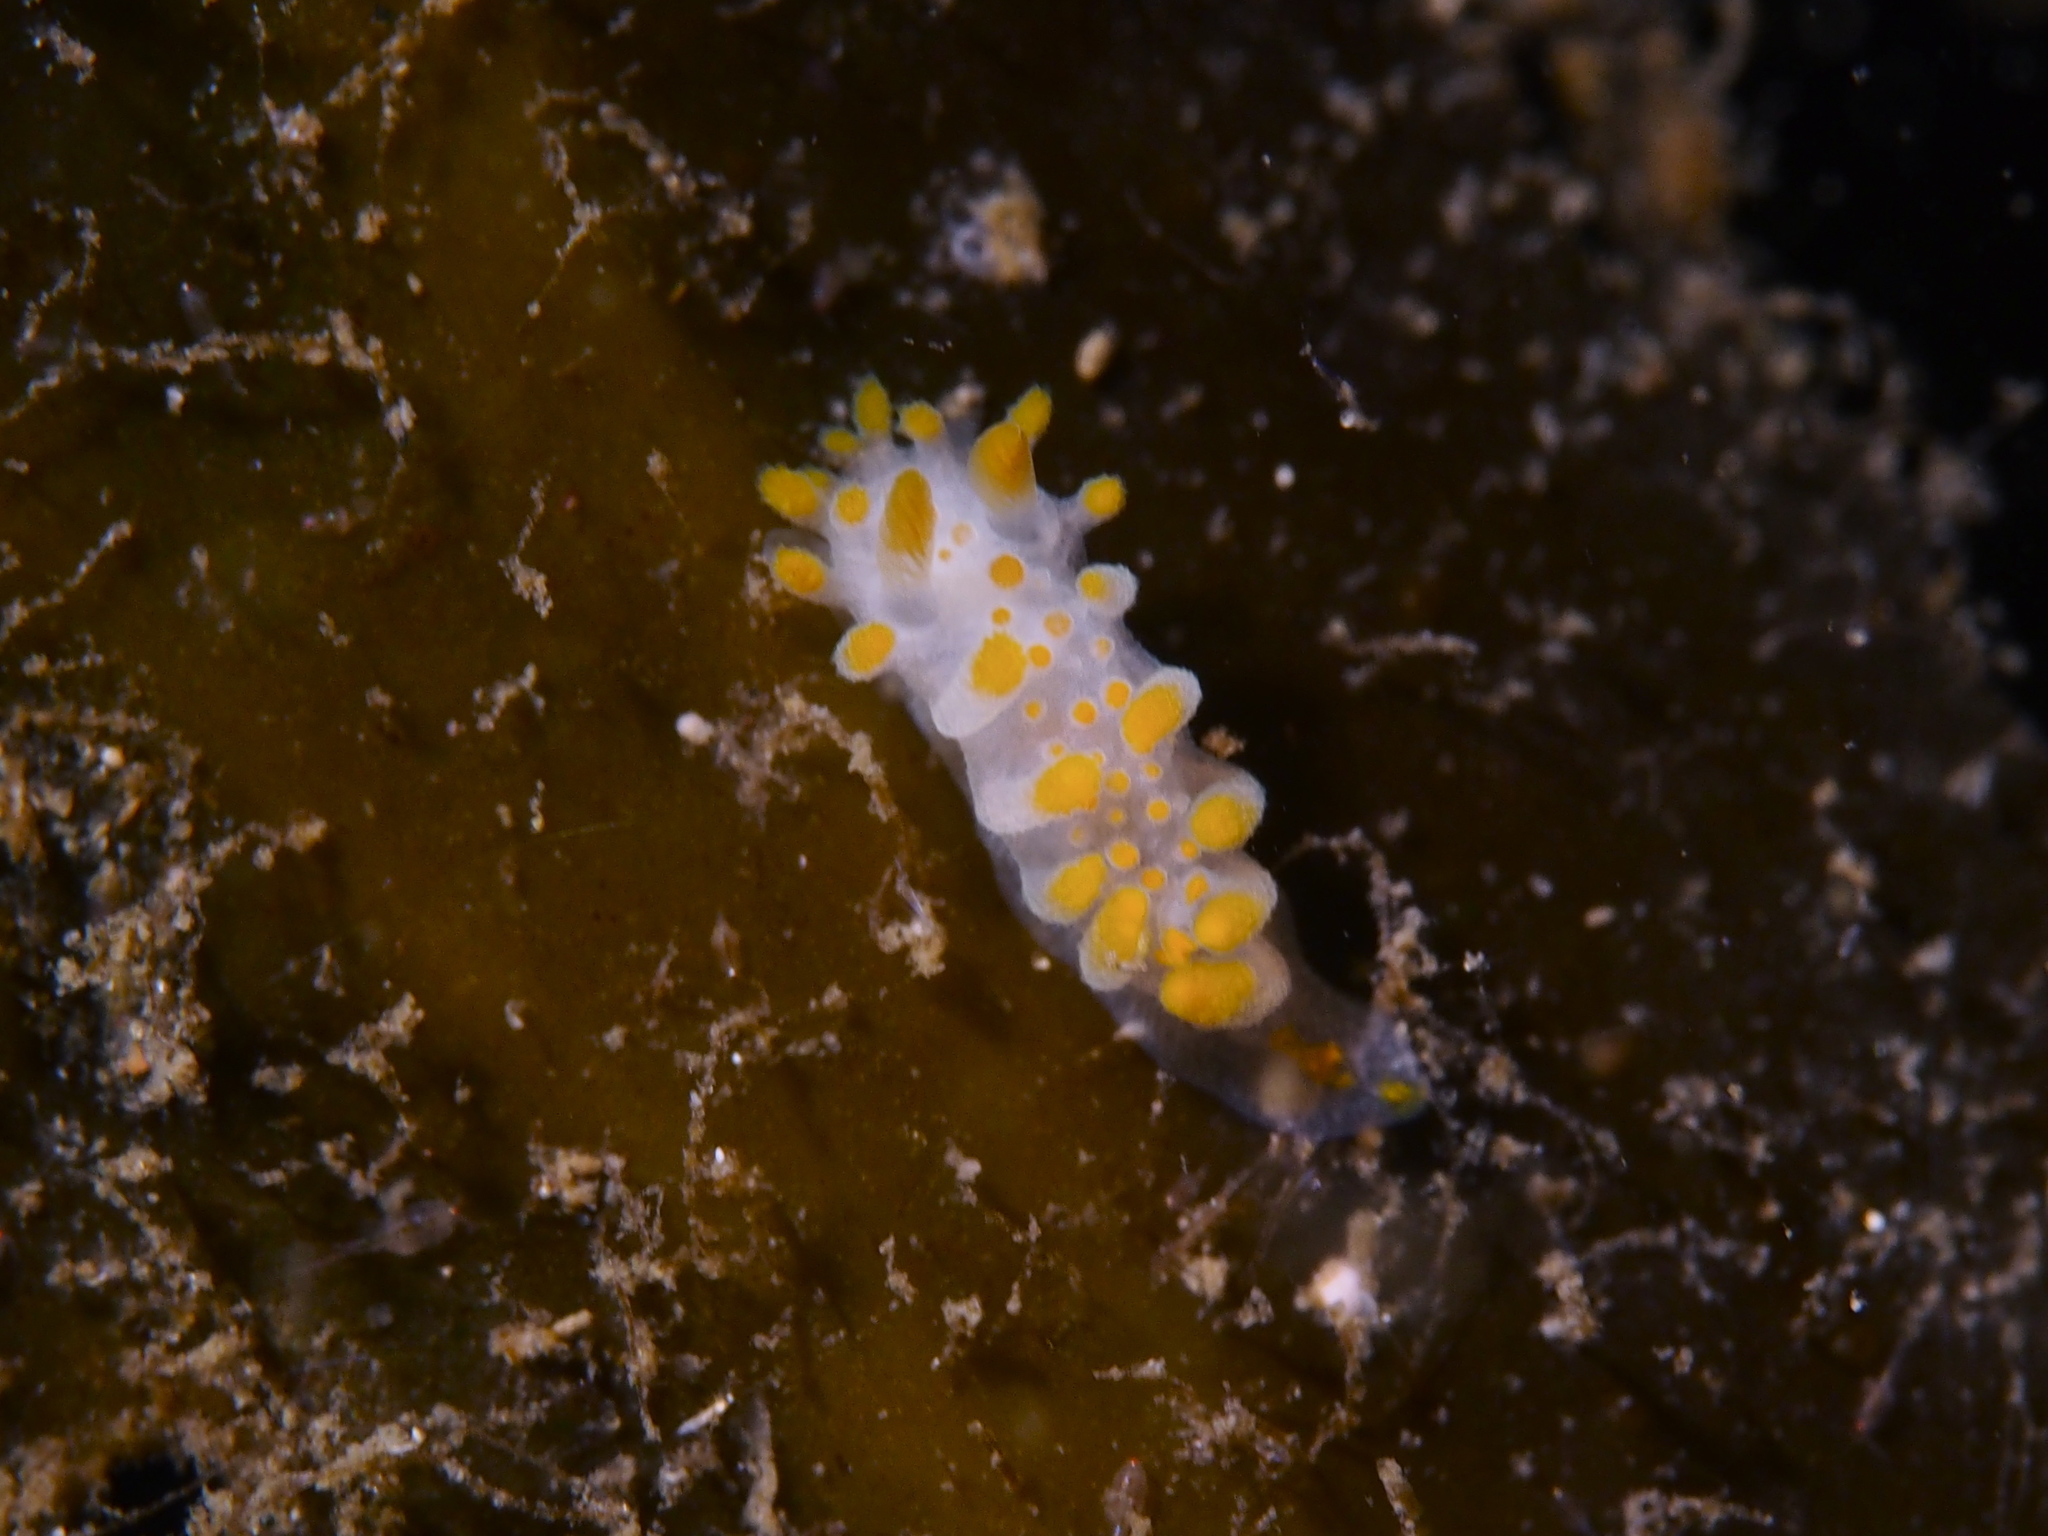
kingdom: Animalia
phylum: Mollusca
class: Gastropoda
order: Nudibranchia
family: Polyceridae
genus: Limacia
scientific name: Limacia clavigera
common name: Orange-clubbed sea slug
